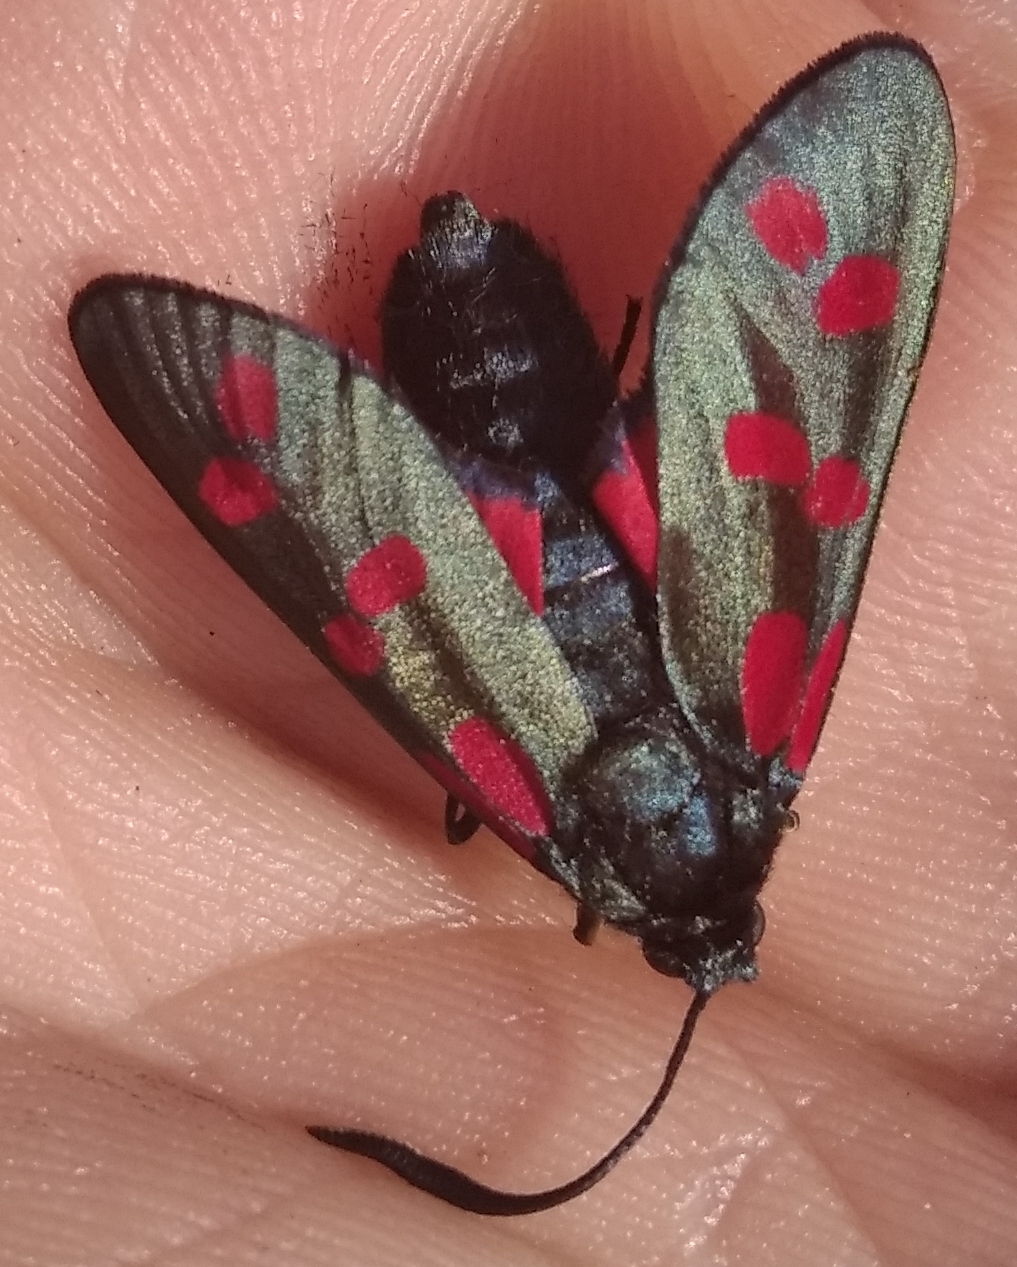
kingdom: Animalia
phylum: Arthropoda
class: Insecta
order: Lepidoptera
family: Zygaenidae
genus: Zygaena
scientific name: Zygaena filipendulae
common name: Six-spot burnet
